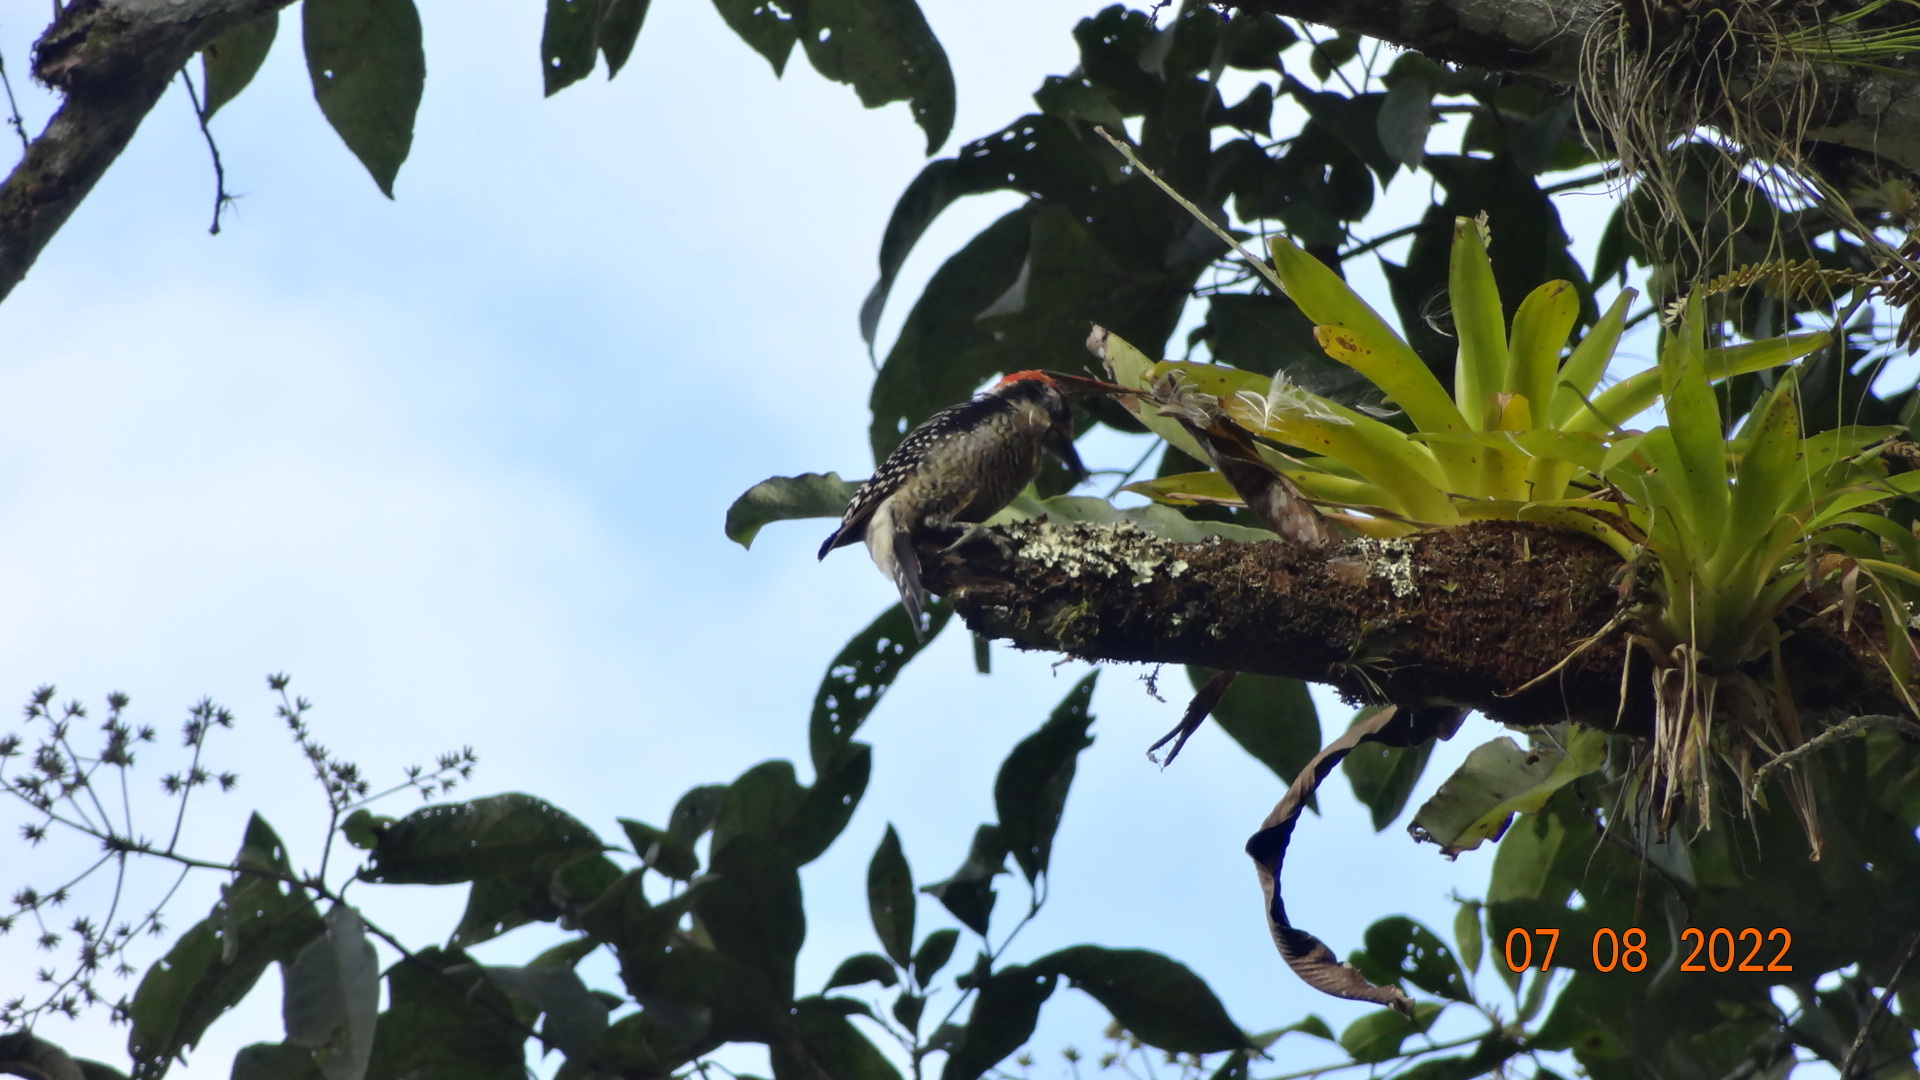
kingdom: Animalia
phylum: Chordata
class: Aves
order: Piciformes
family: Picidae
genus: Melanerpes
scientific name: Melanerpes pucherani
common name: Black-cheeked woodpecker
